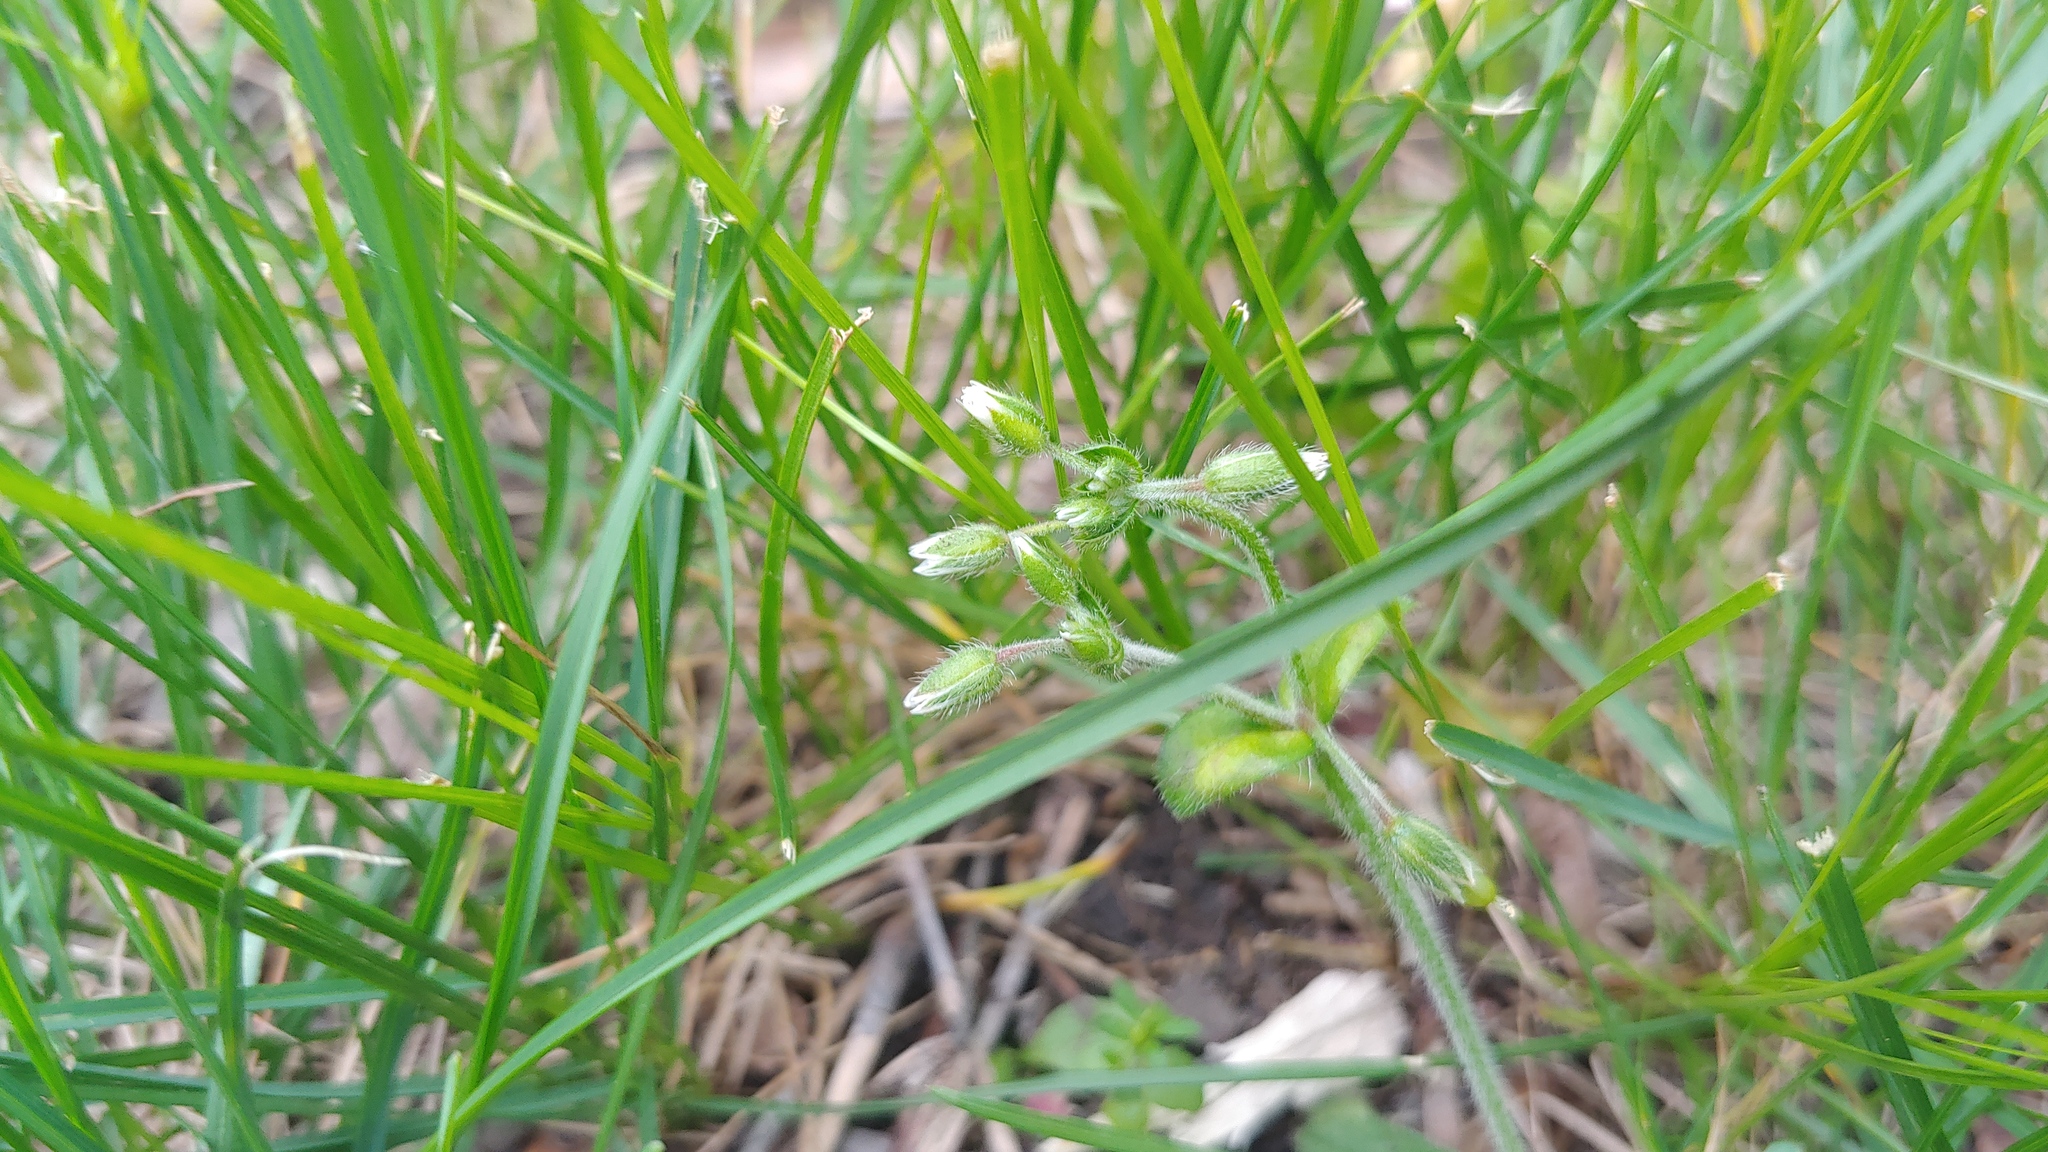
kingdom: Plantae
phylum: Tracheophyta
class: Magnoliopsida
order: Caryophyllales
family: Caryophyllaceae
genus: Cerastium
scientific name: Cerastium fontanum
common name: Common mouse-ear
